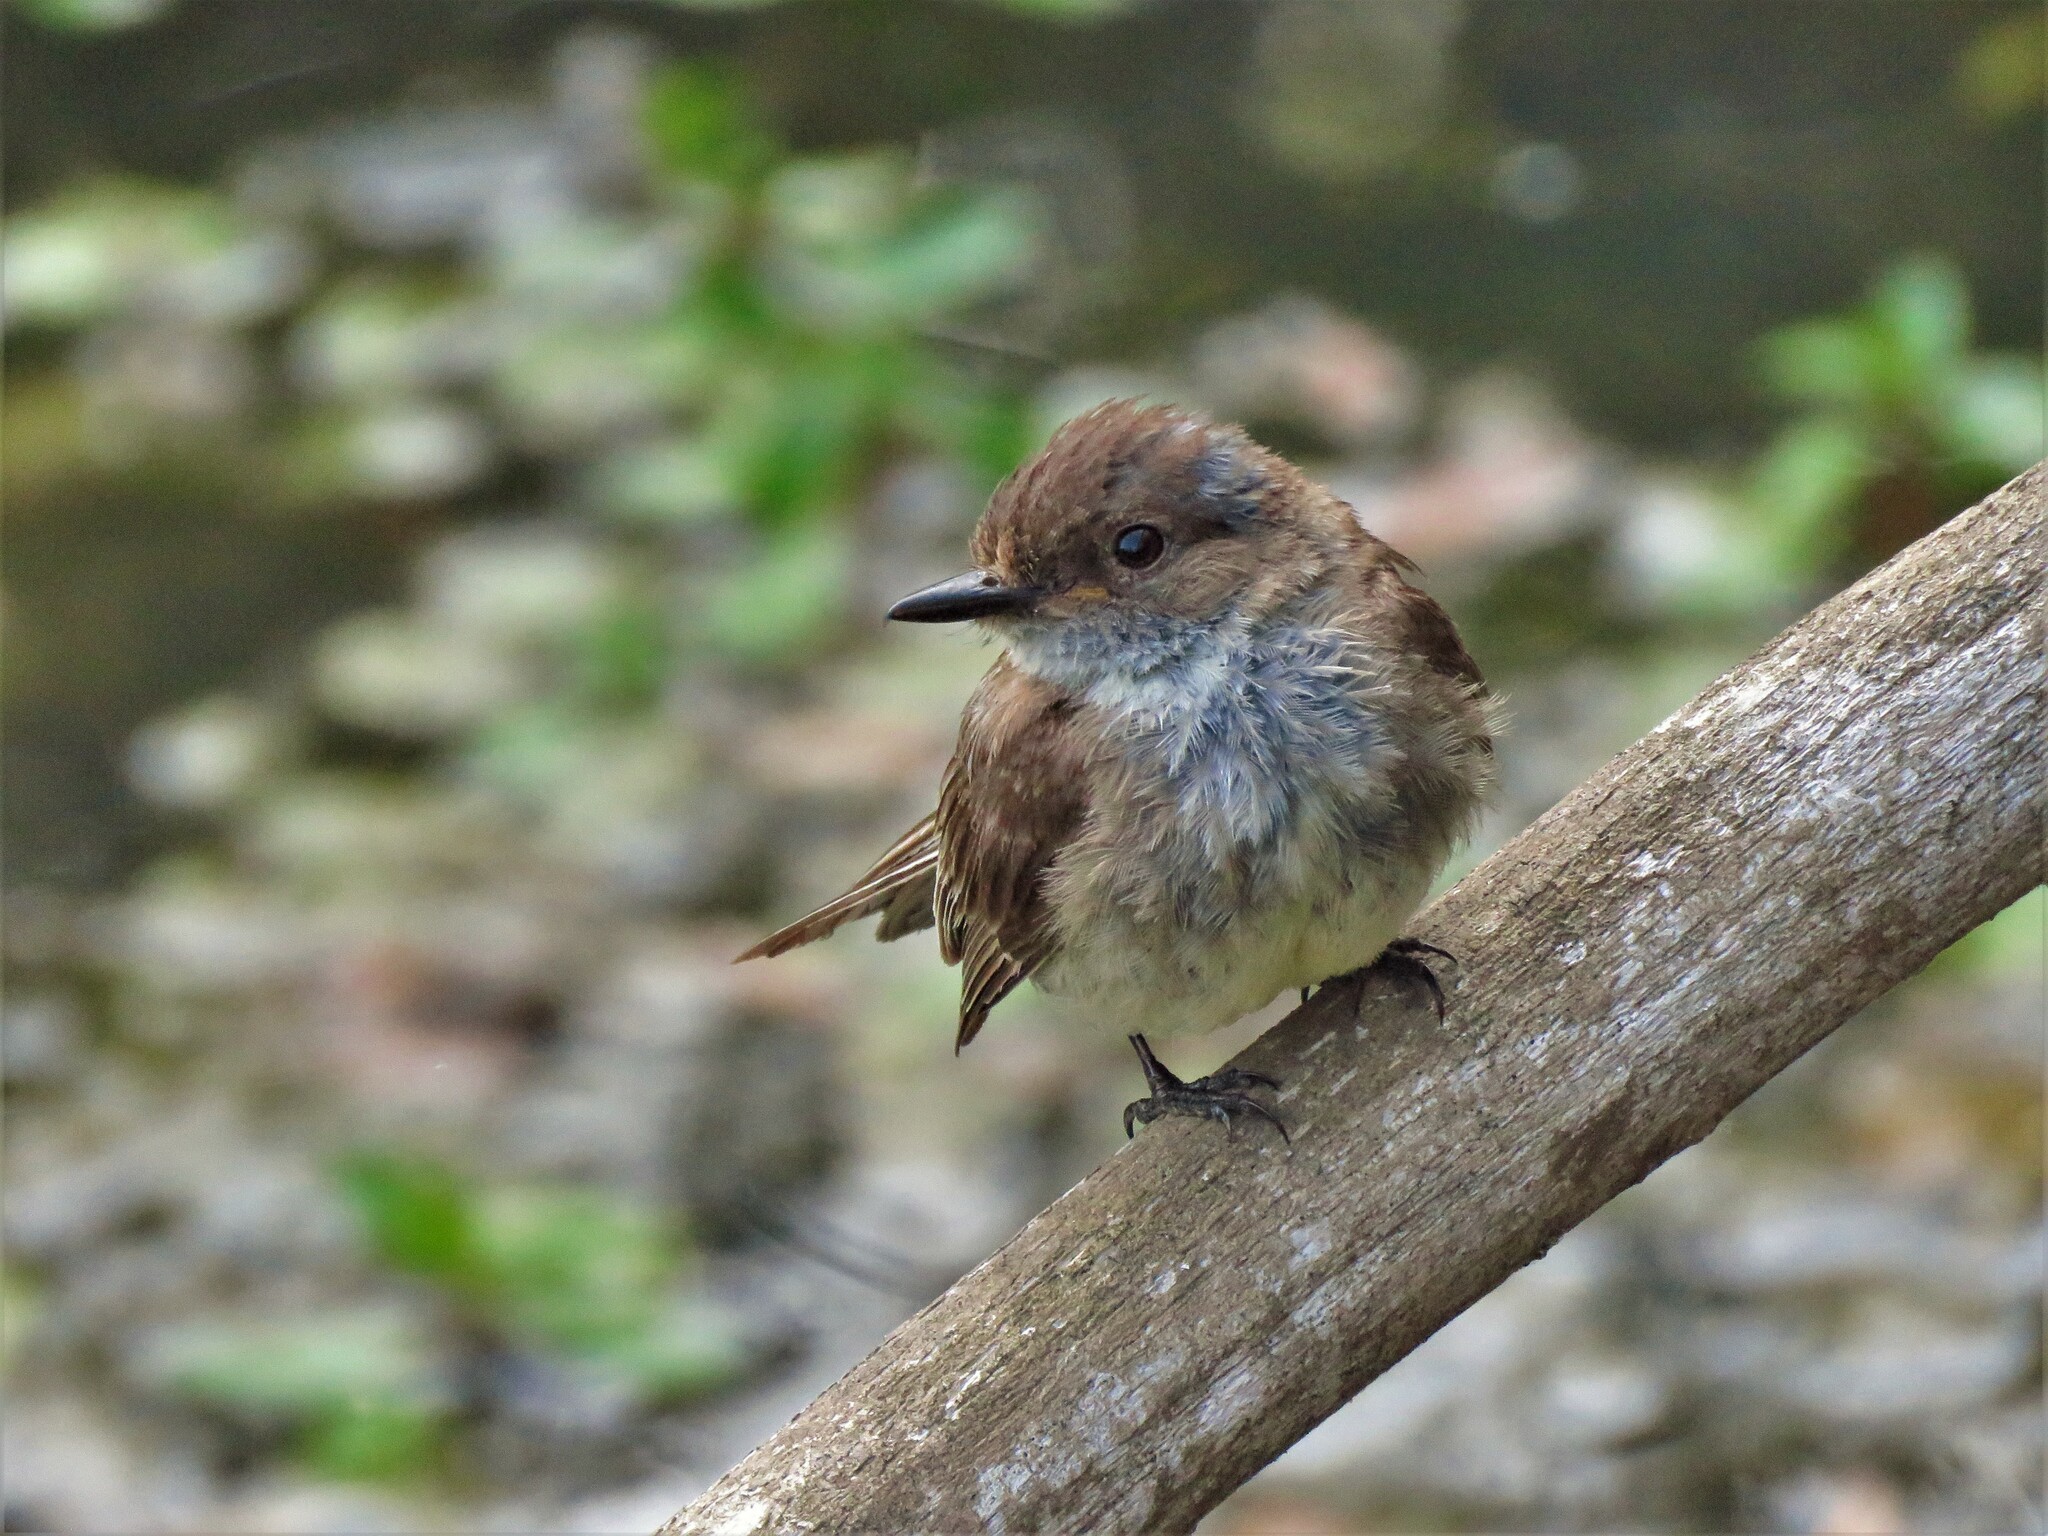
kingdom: Animalia
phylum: Chordata
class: Aves
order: Passeriformes
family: Tyrannidae
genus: Sayornis
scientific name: Sayornis phoebe
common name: Eastern phoebe
